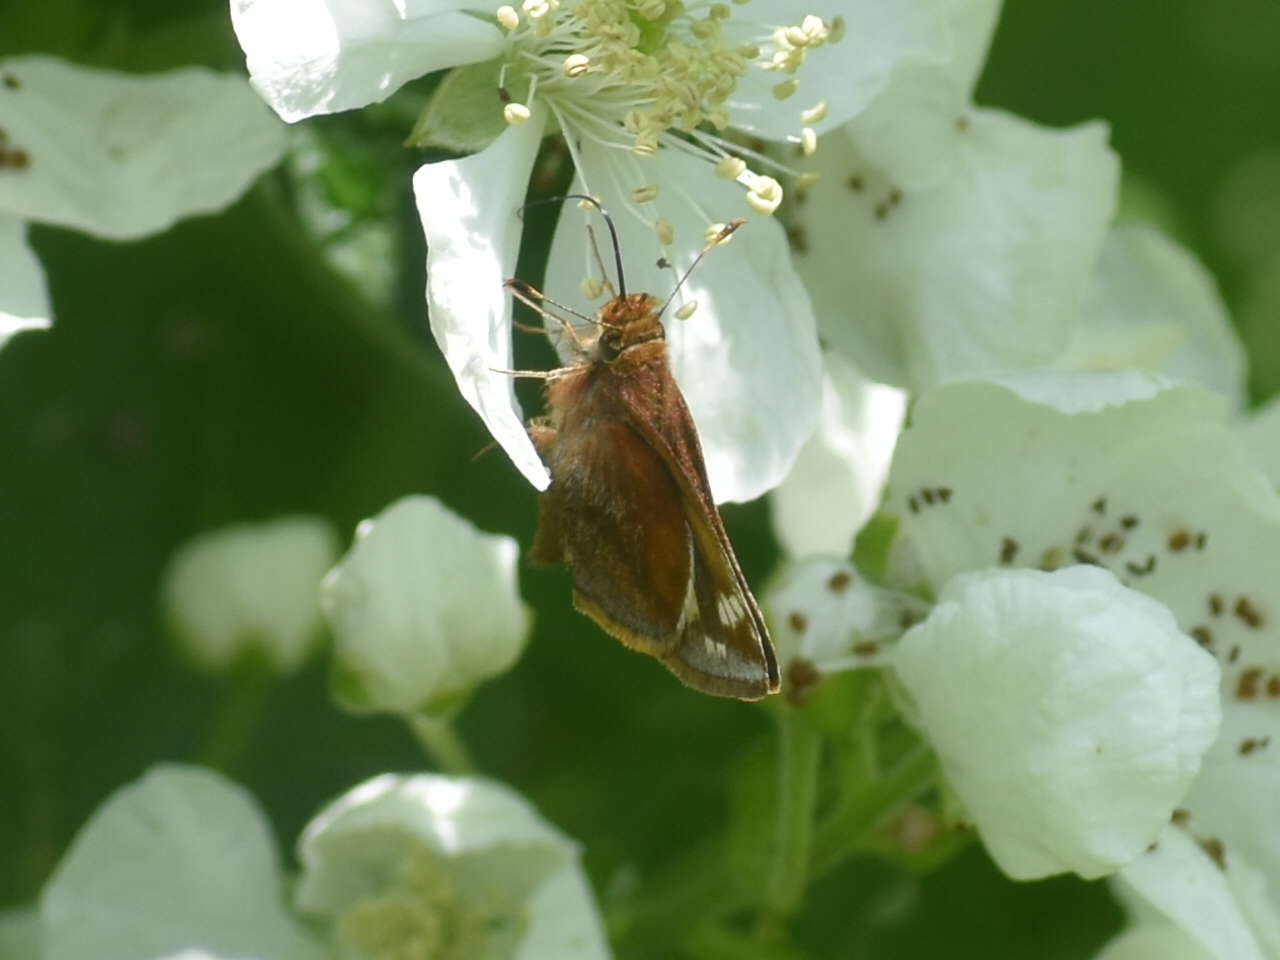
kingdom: Animalia
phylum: Arthropoda
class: Insecta
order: Lepidoptera
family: Hesperiidae
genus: Lon
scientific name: Lon zabulon
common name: Zabulon skipper
